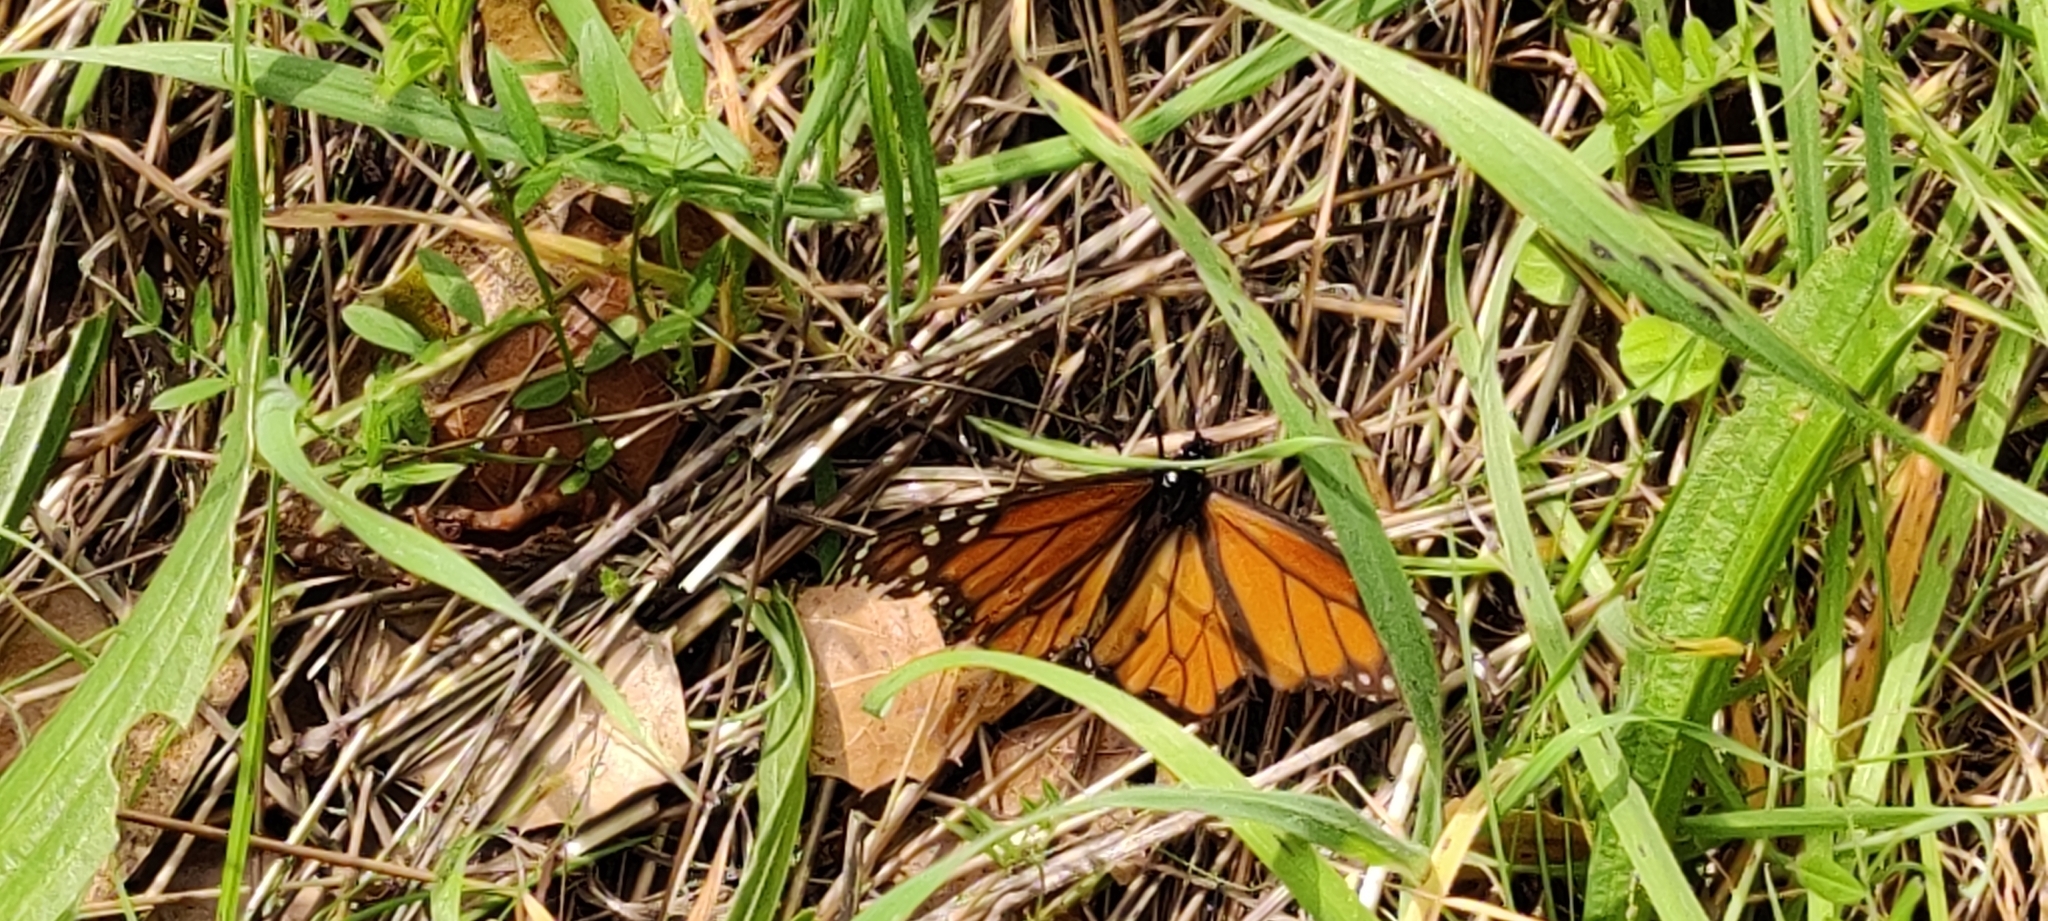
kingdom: Animalia
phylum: Arthropoda
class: Insecta
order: Lepidoptera
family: Nymphalidae
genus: Danaus
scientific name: Danaus plexippus
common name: Monarch
